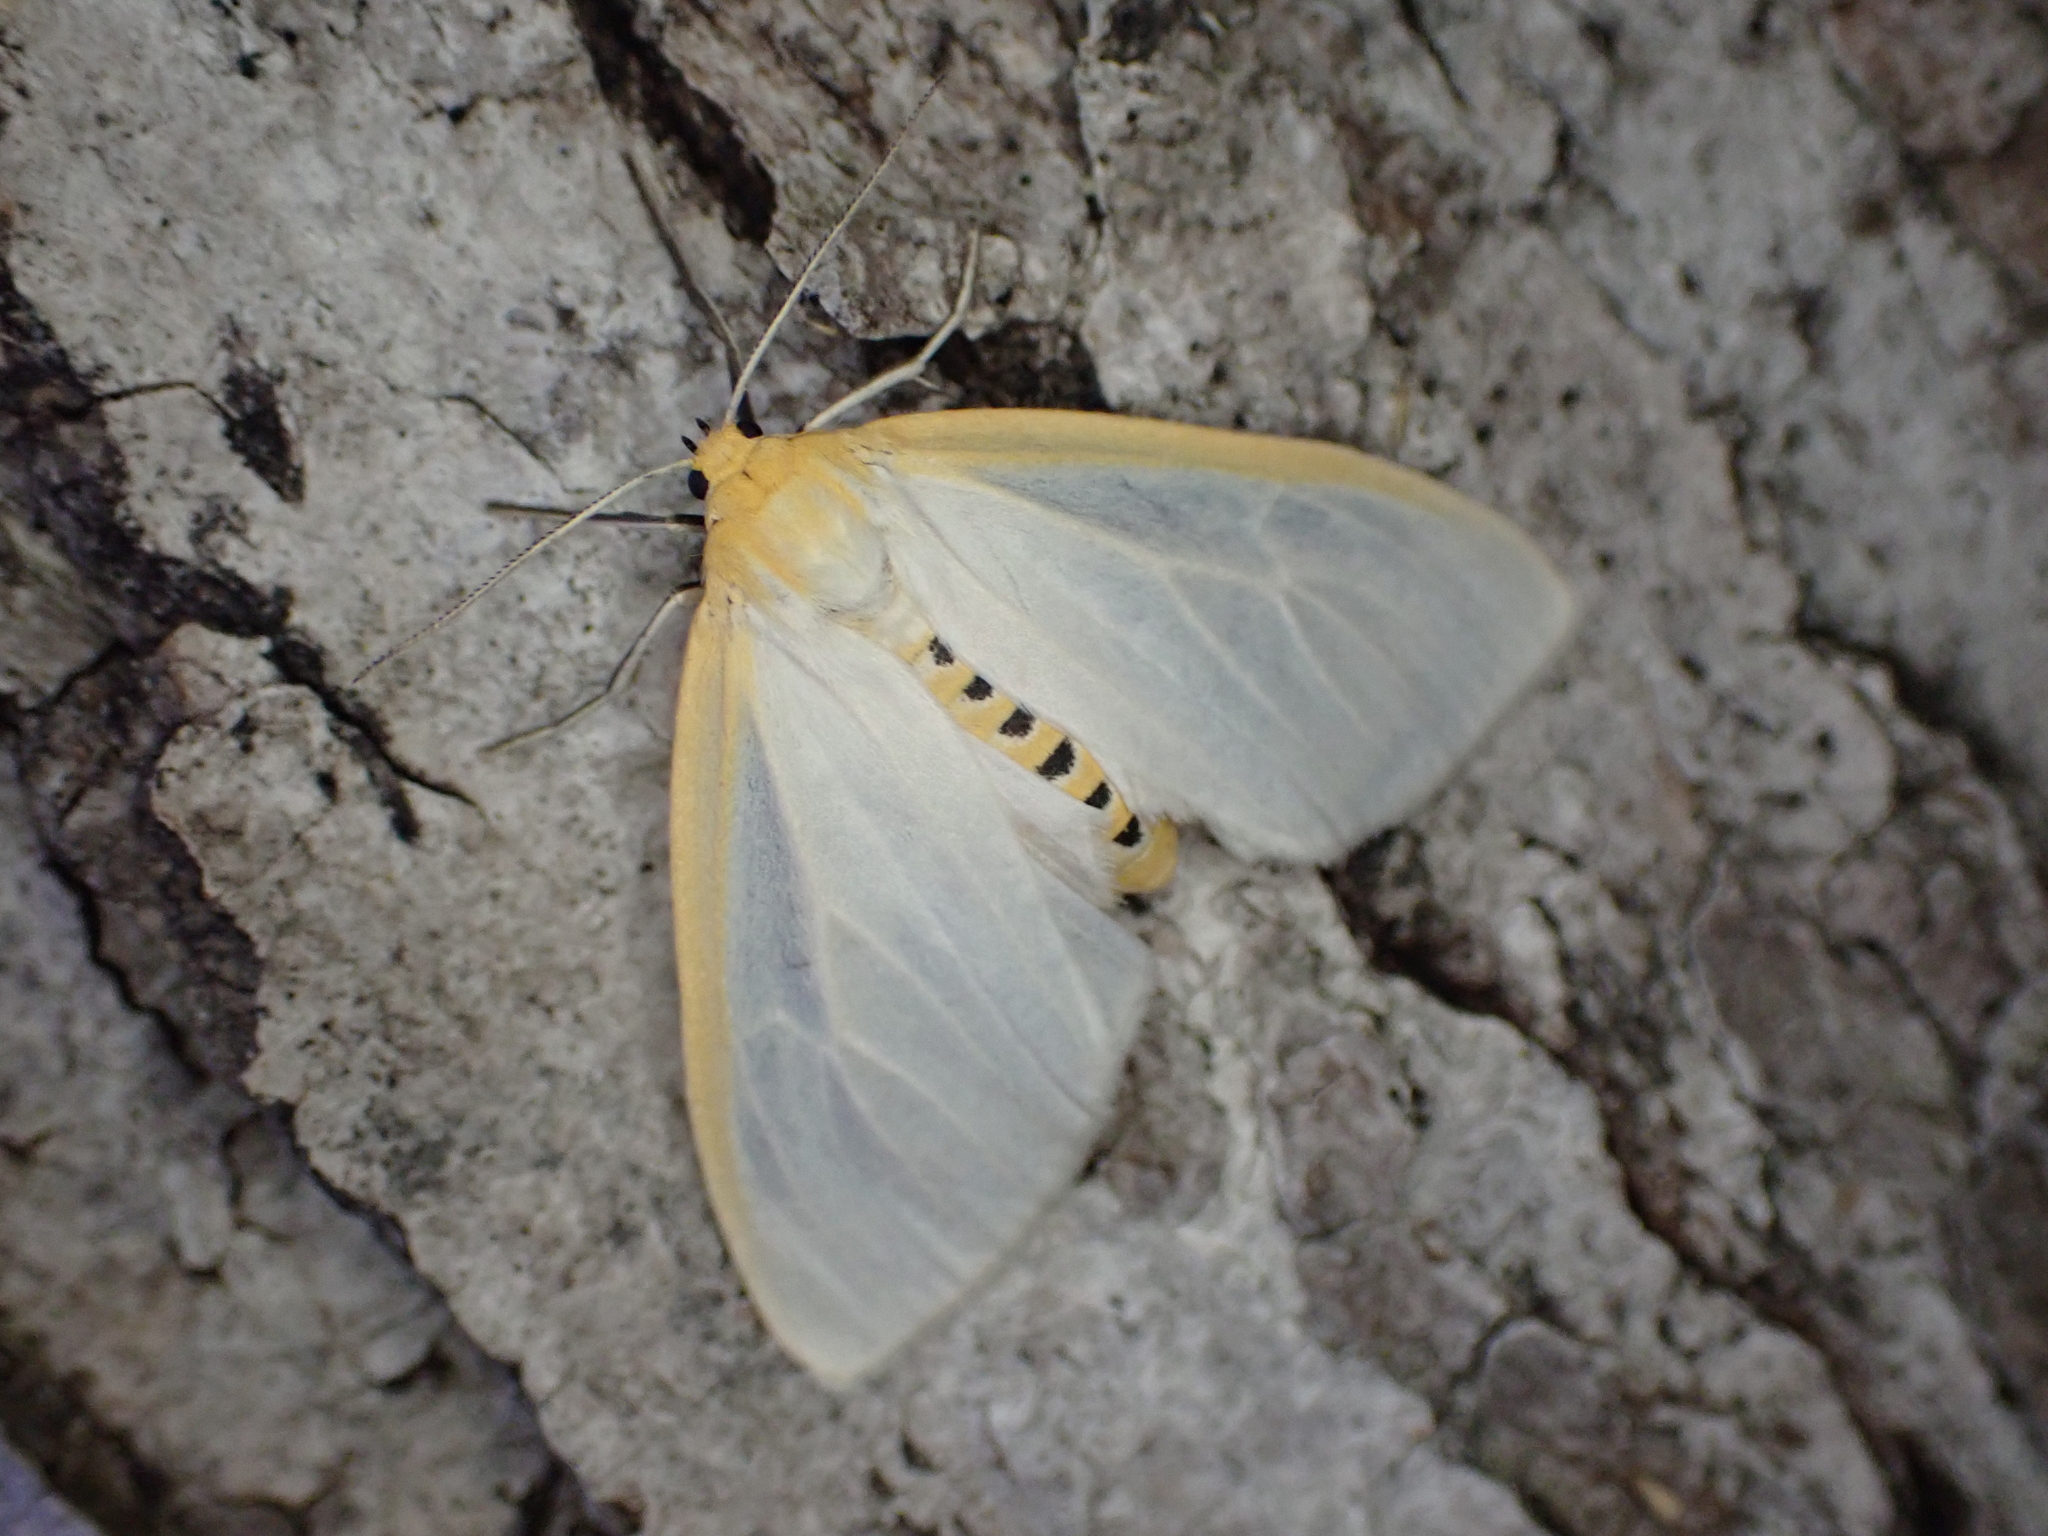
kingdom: Animalia
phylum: Arthropoda
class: Insecta
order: Lepidoptera
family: Erebidae
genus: Cycnia
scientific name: Cycnia tenera
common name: Delicate cycnia moth
